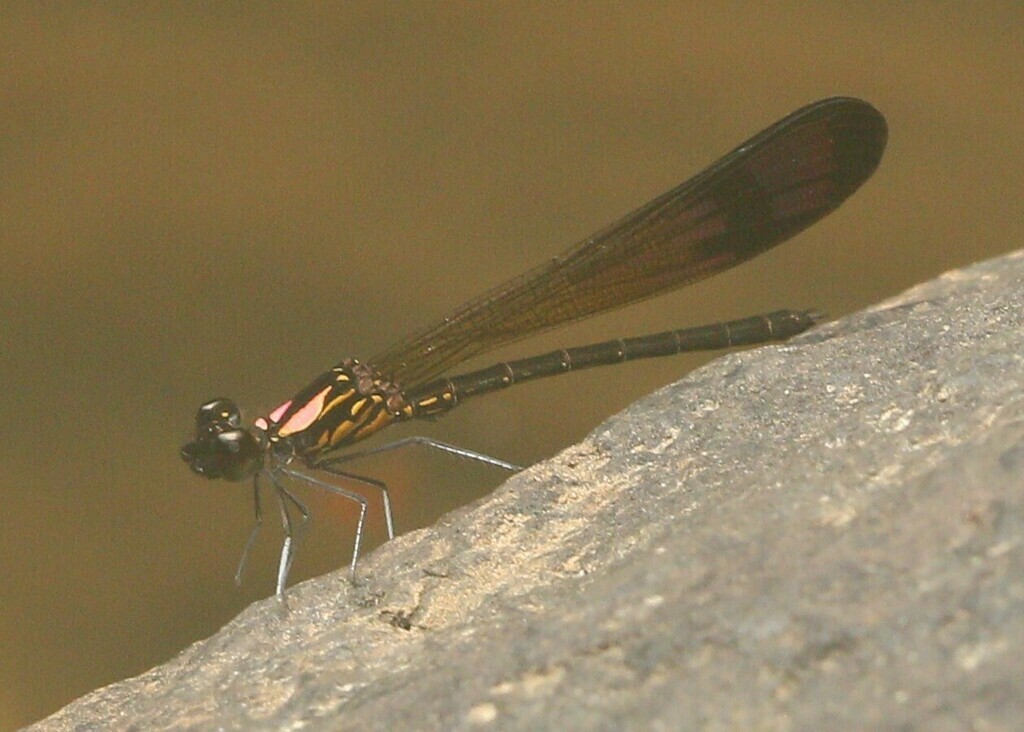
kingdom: Animalia
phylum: Arthropoda
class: Insecta
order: Odonata
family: Chlorocyphidae
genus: Heliocypha
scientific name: Heliocypha bisignata
